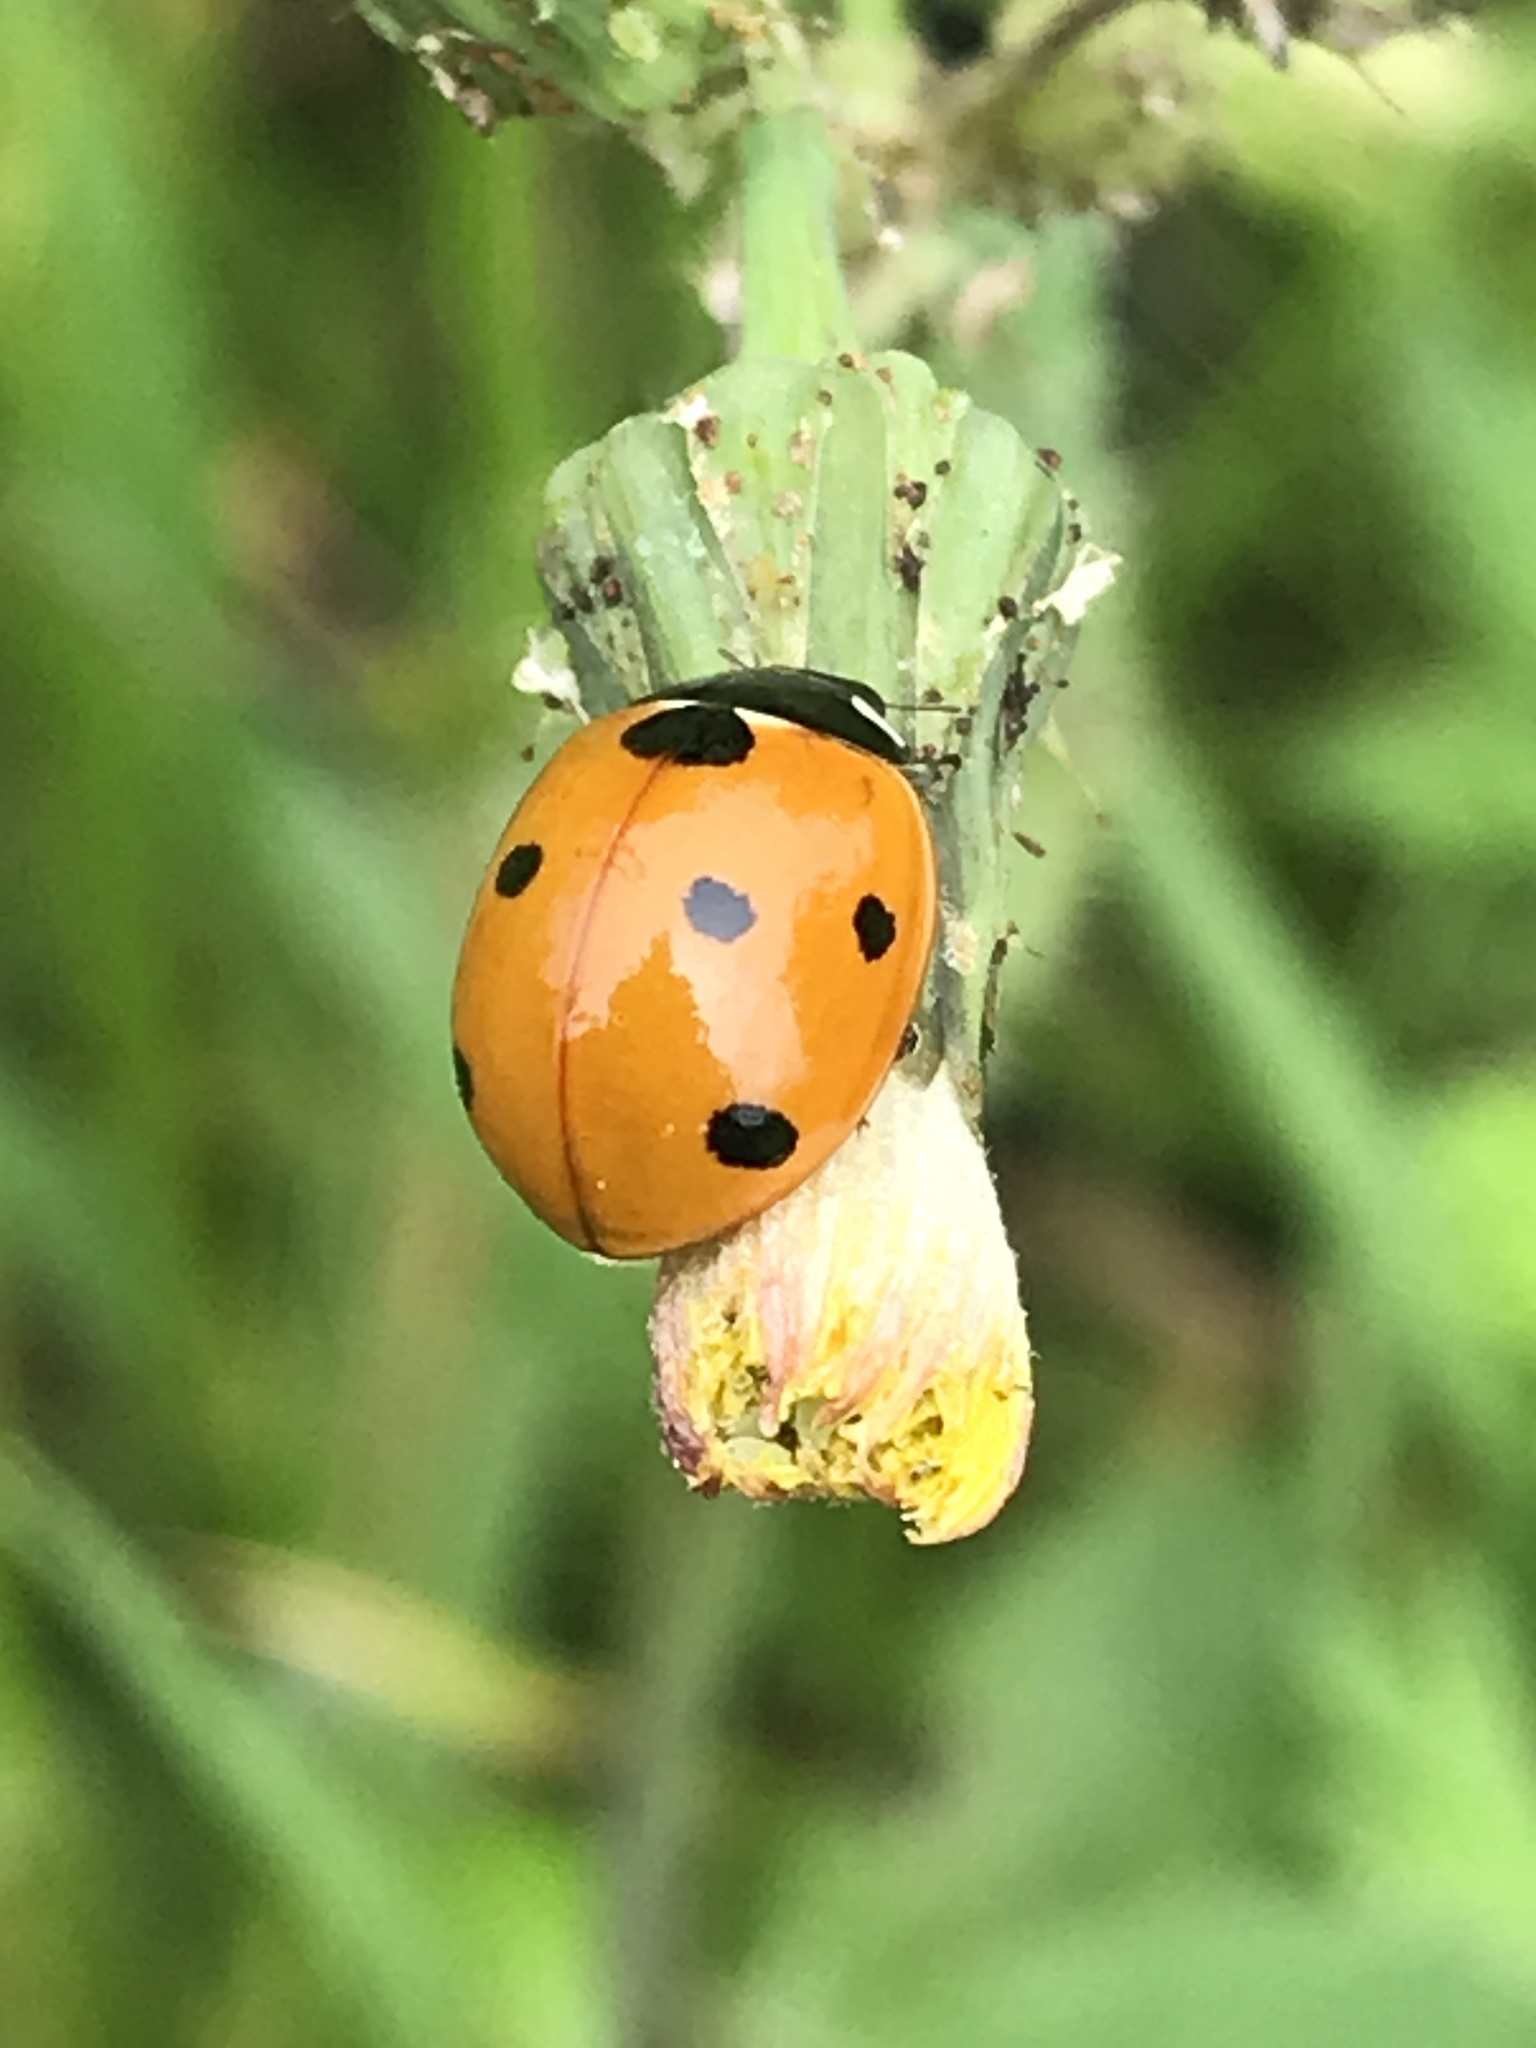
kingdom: Animalia
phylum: Arthropoda
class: Insecta
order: Coleoptera
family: Coccinellidae
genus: Coccinella
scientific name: Coccinella septempunctata
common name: Sevenspotted lady beetle
